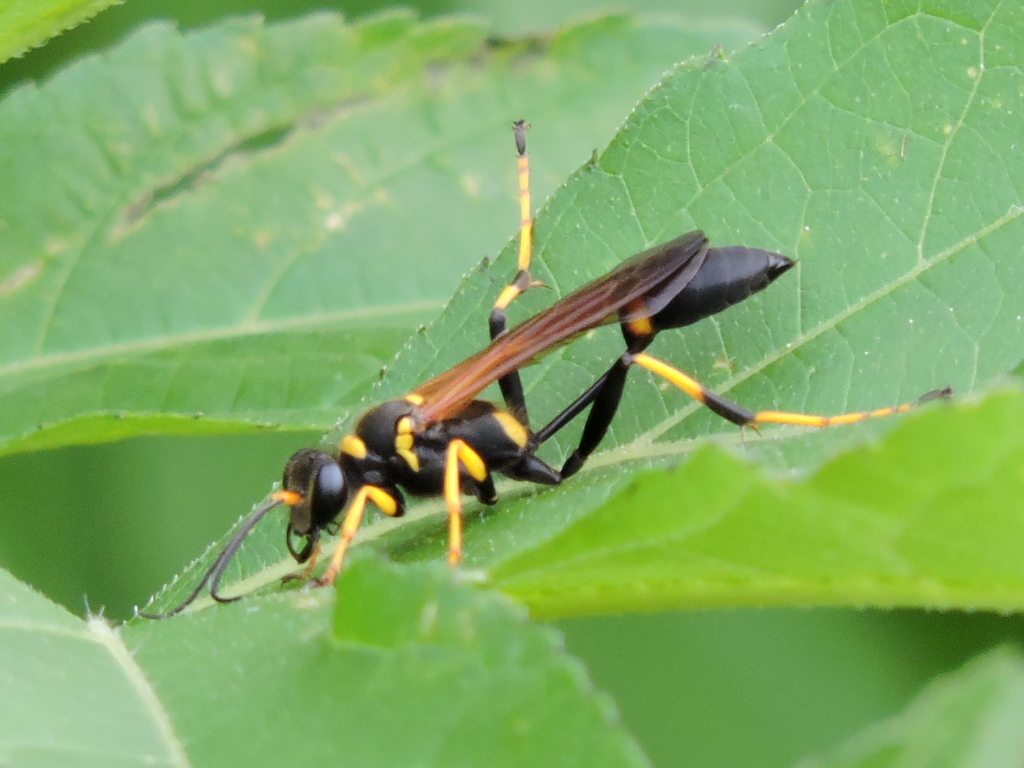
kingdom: Animalia
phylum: Arthropoda
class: Insecta
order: Hymenoptera
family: Sphecidae
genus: Sceliphron
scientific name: Sceliphron caementarium
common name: Mud dauber
